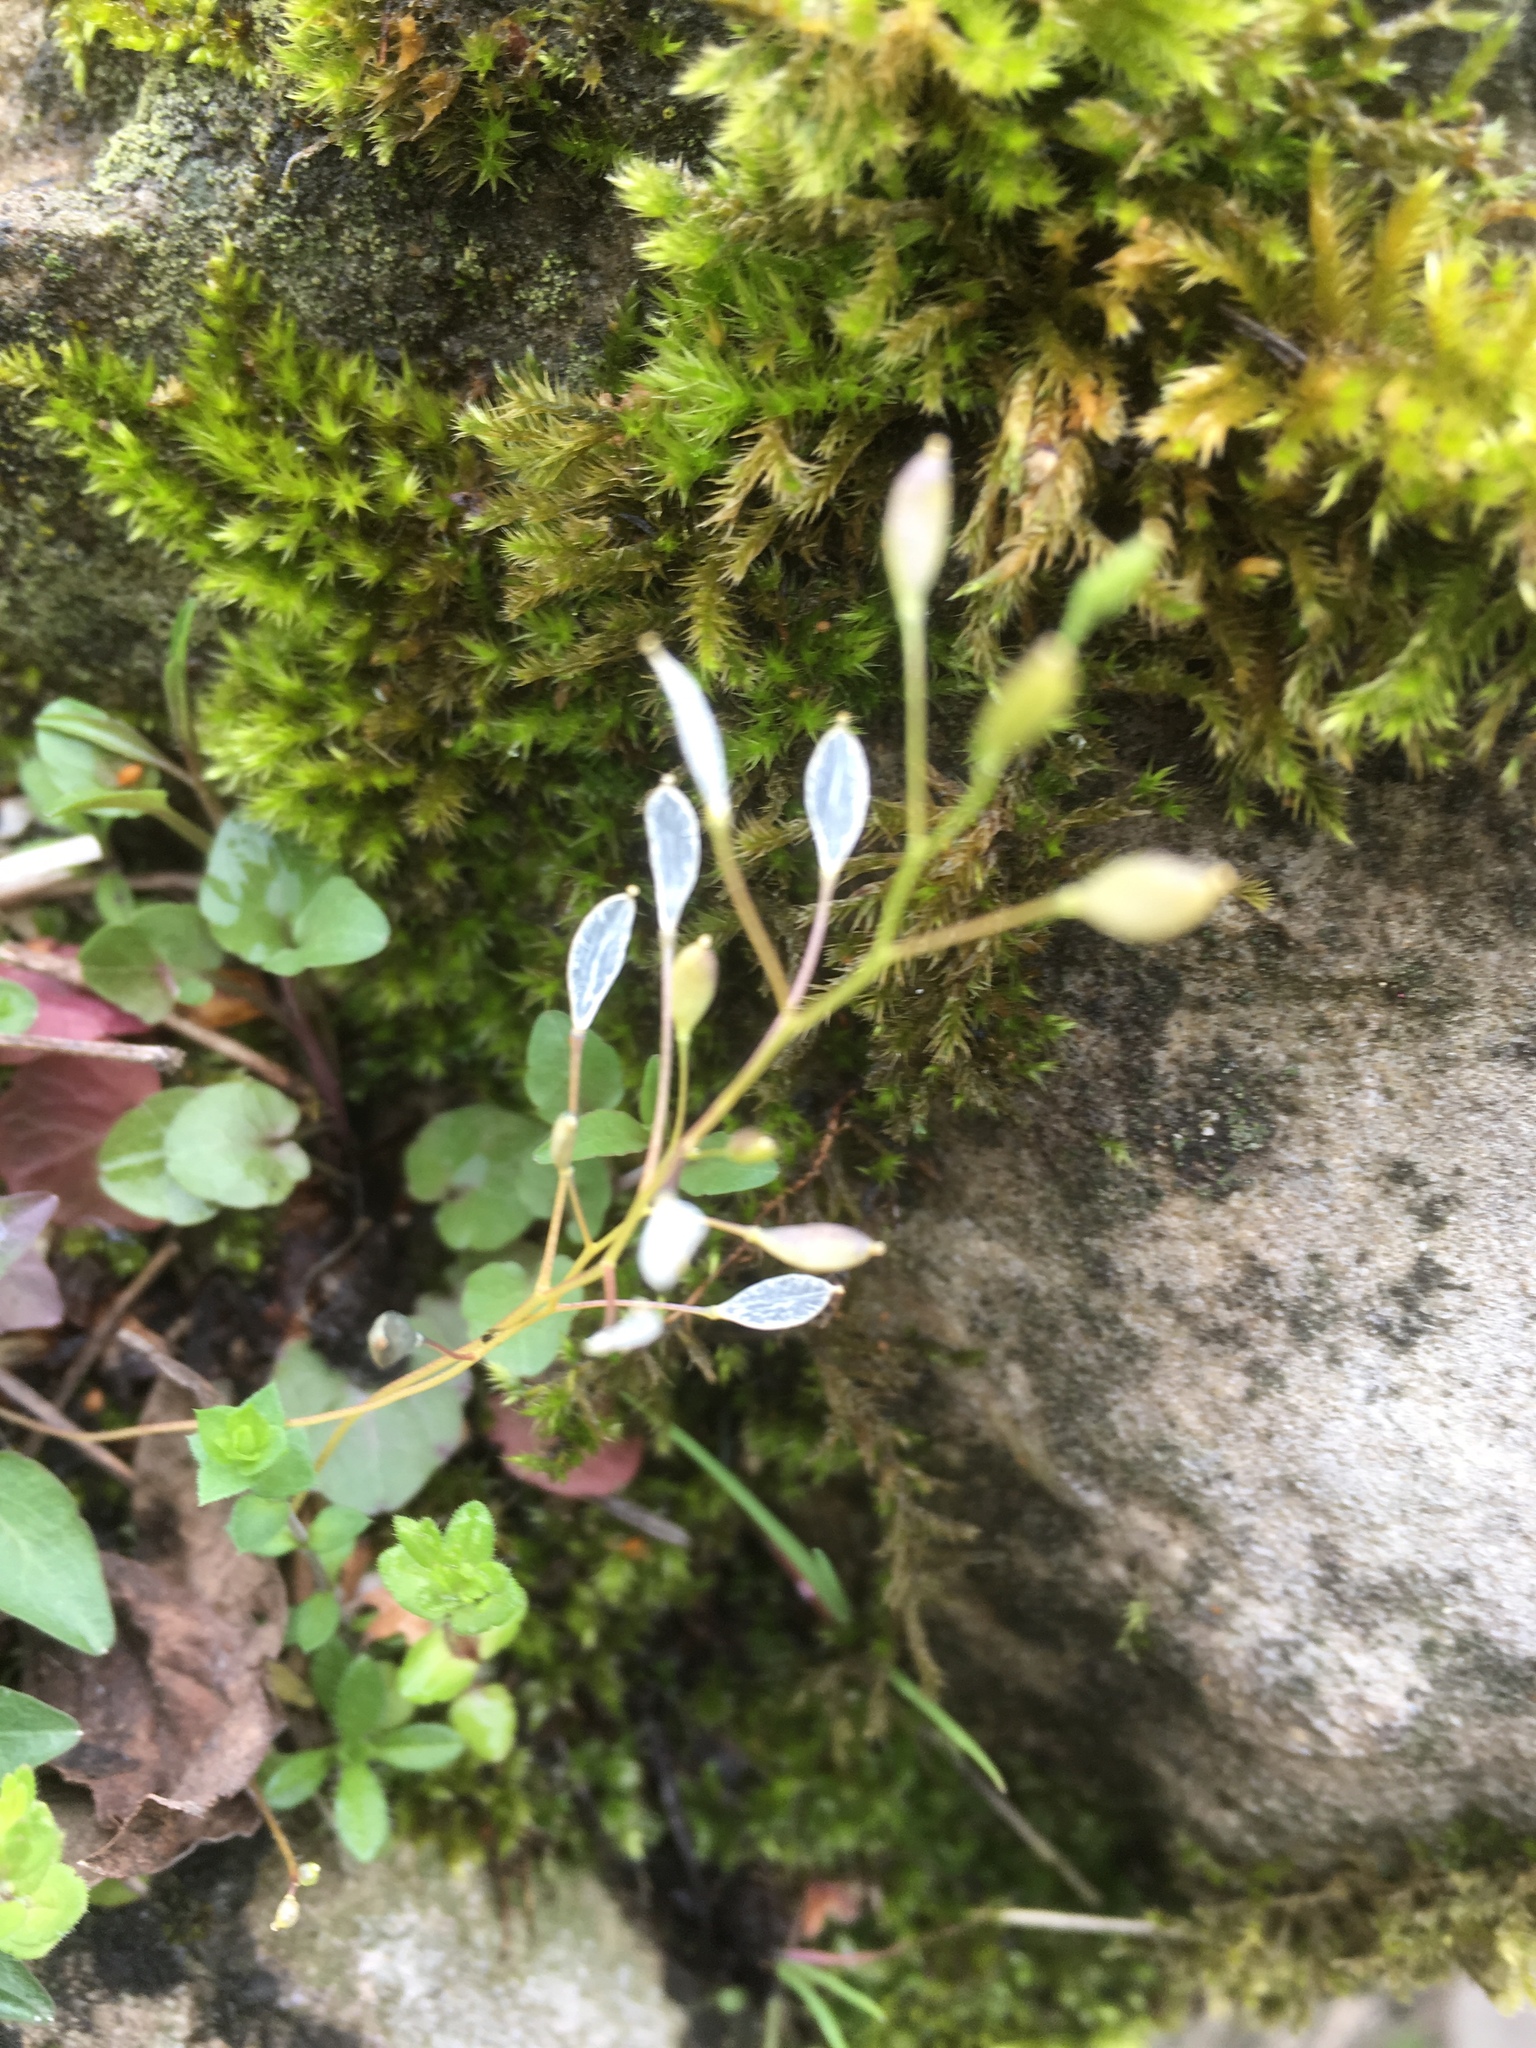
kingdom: Plantae
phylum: Tracheophyta
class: Magnoliopsida
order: Brassicales
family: Brassicaceae
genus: Draba
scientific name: Draba verna
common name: Spring draba
